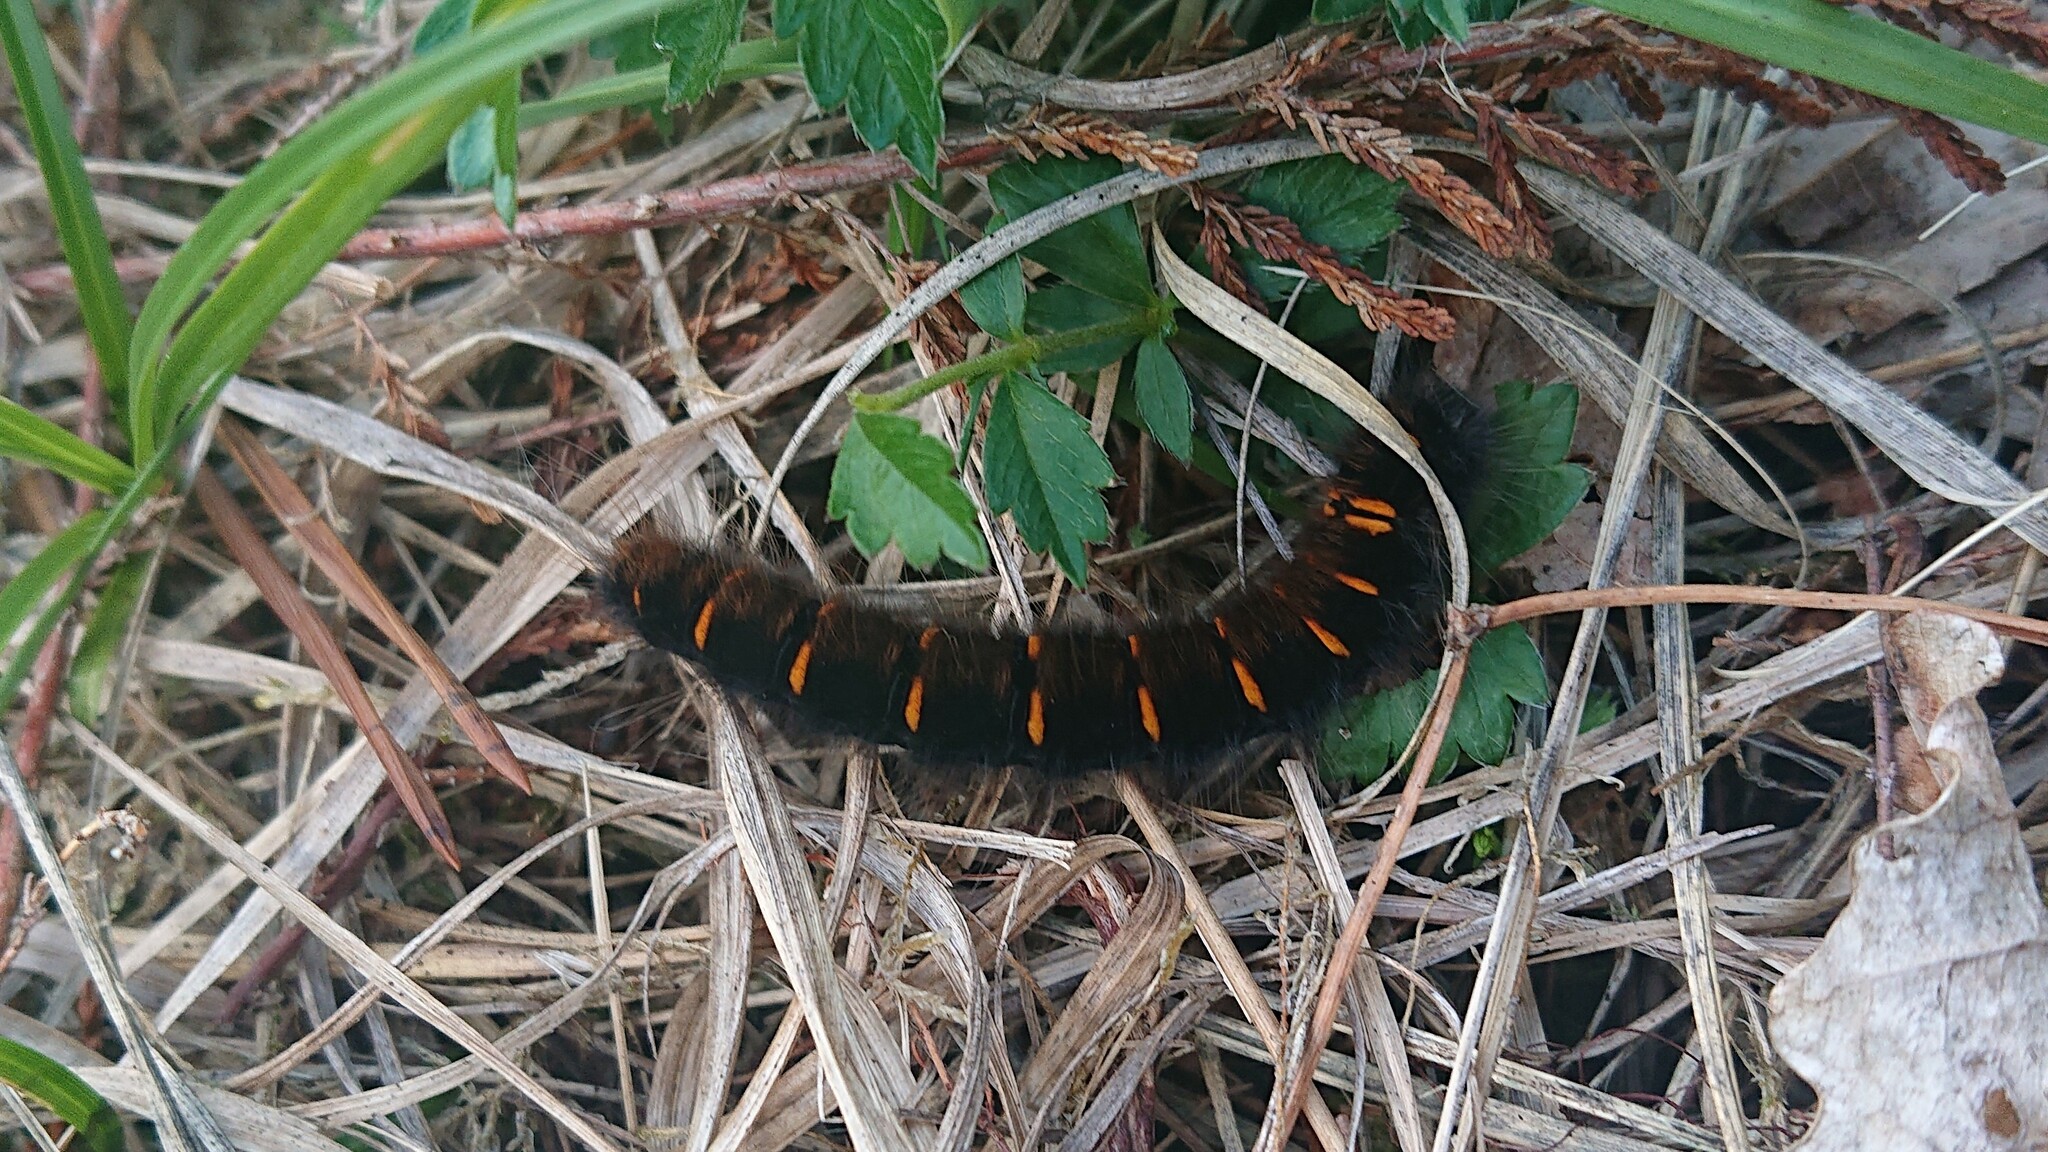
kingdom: Animalia
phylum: Arthropoda
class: Insecta
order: Lepidoptera
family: Lasiocampidae
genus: Macrothylacia
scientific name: Macrothylacia rubi
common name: Fox moth
